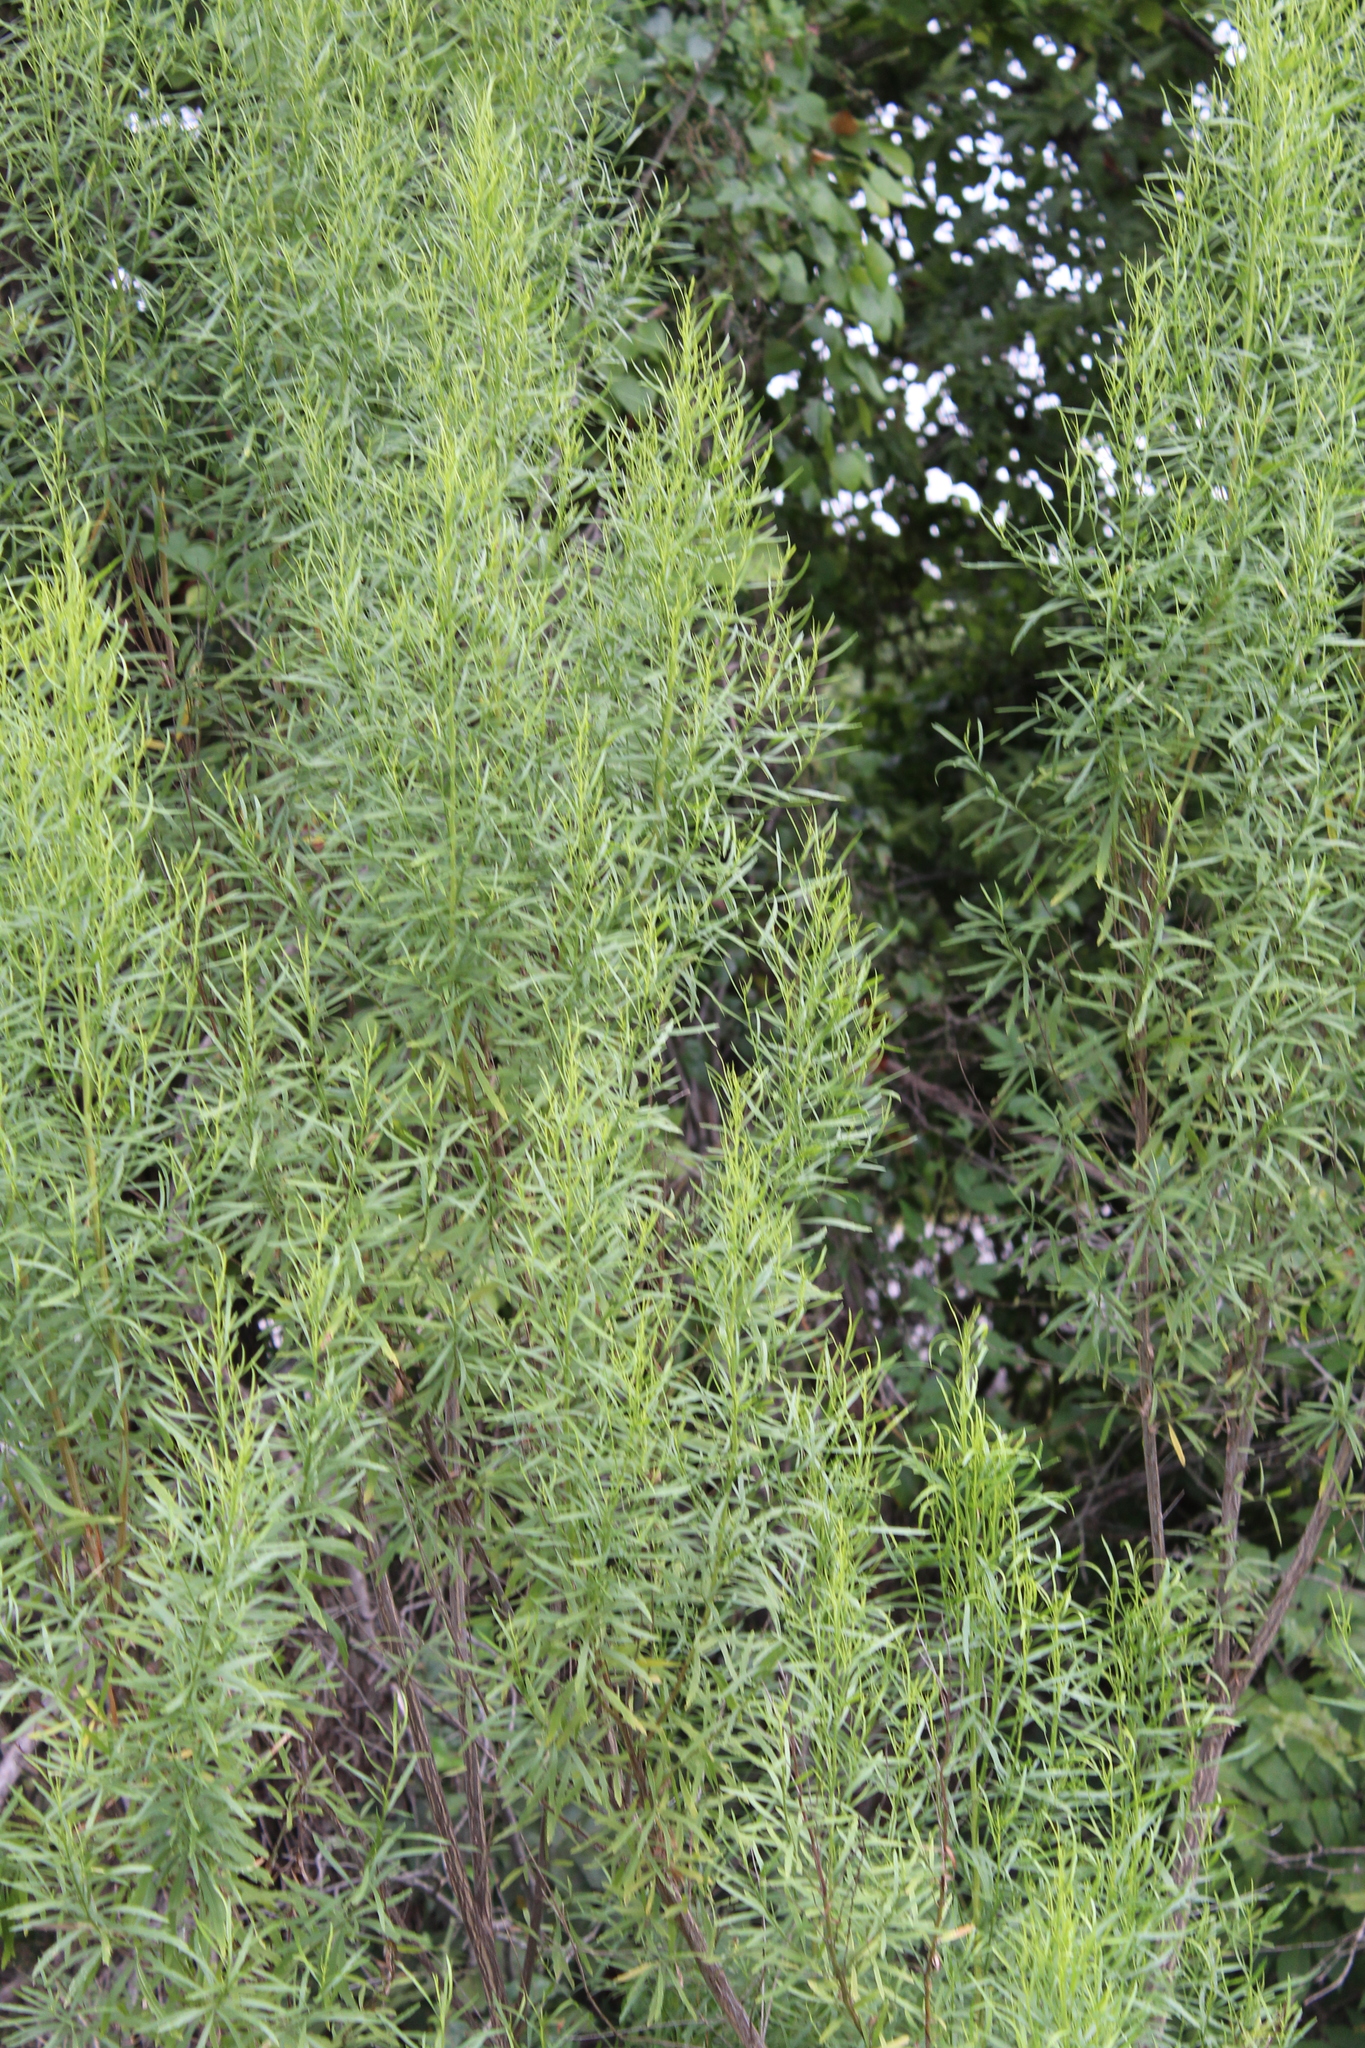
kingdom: Plantae
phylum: Tracheophyta
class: Magnoliopsida
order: Asterales
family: Asteraceae
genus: Baccharis
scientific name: Baccharis neglecta
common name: Roosevelt-weed
